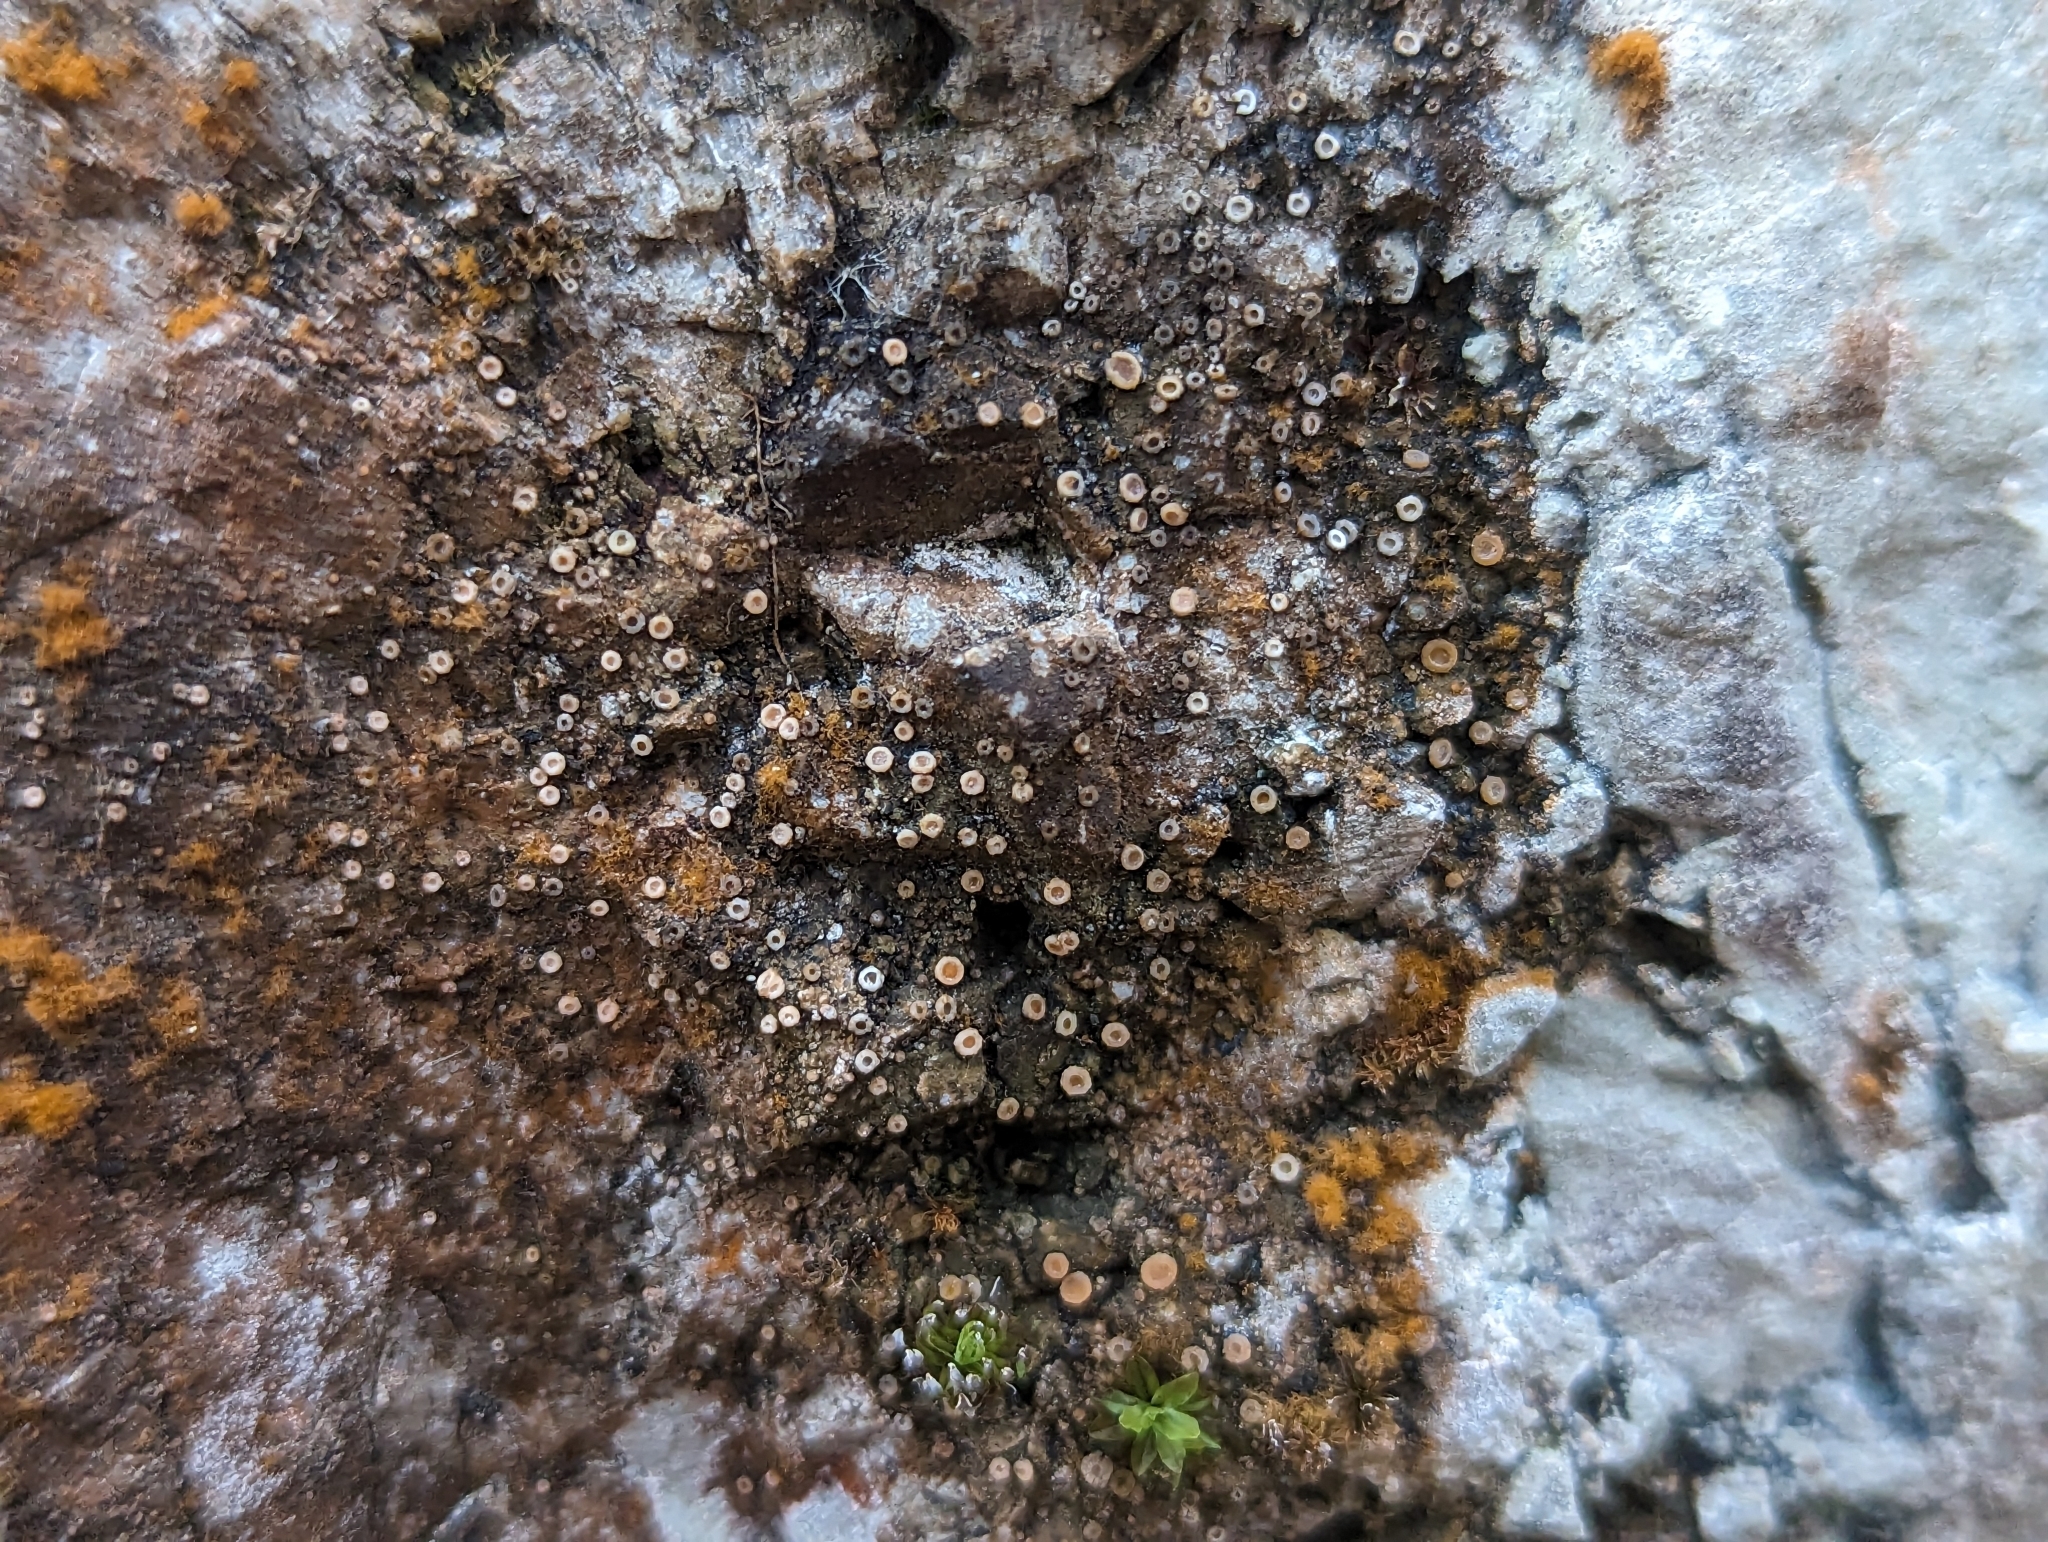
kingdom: Fungi
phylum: Ascomycota
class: Lecanoromycetes
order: Gyalectales
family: Gyalectaceae
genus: Gyalecta
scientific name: Gyalecta jenensis
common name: Rock dimple lichen
